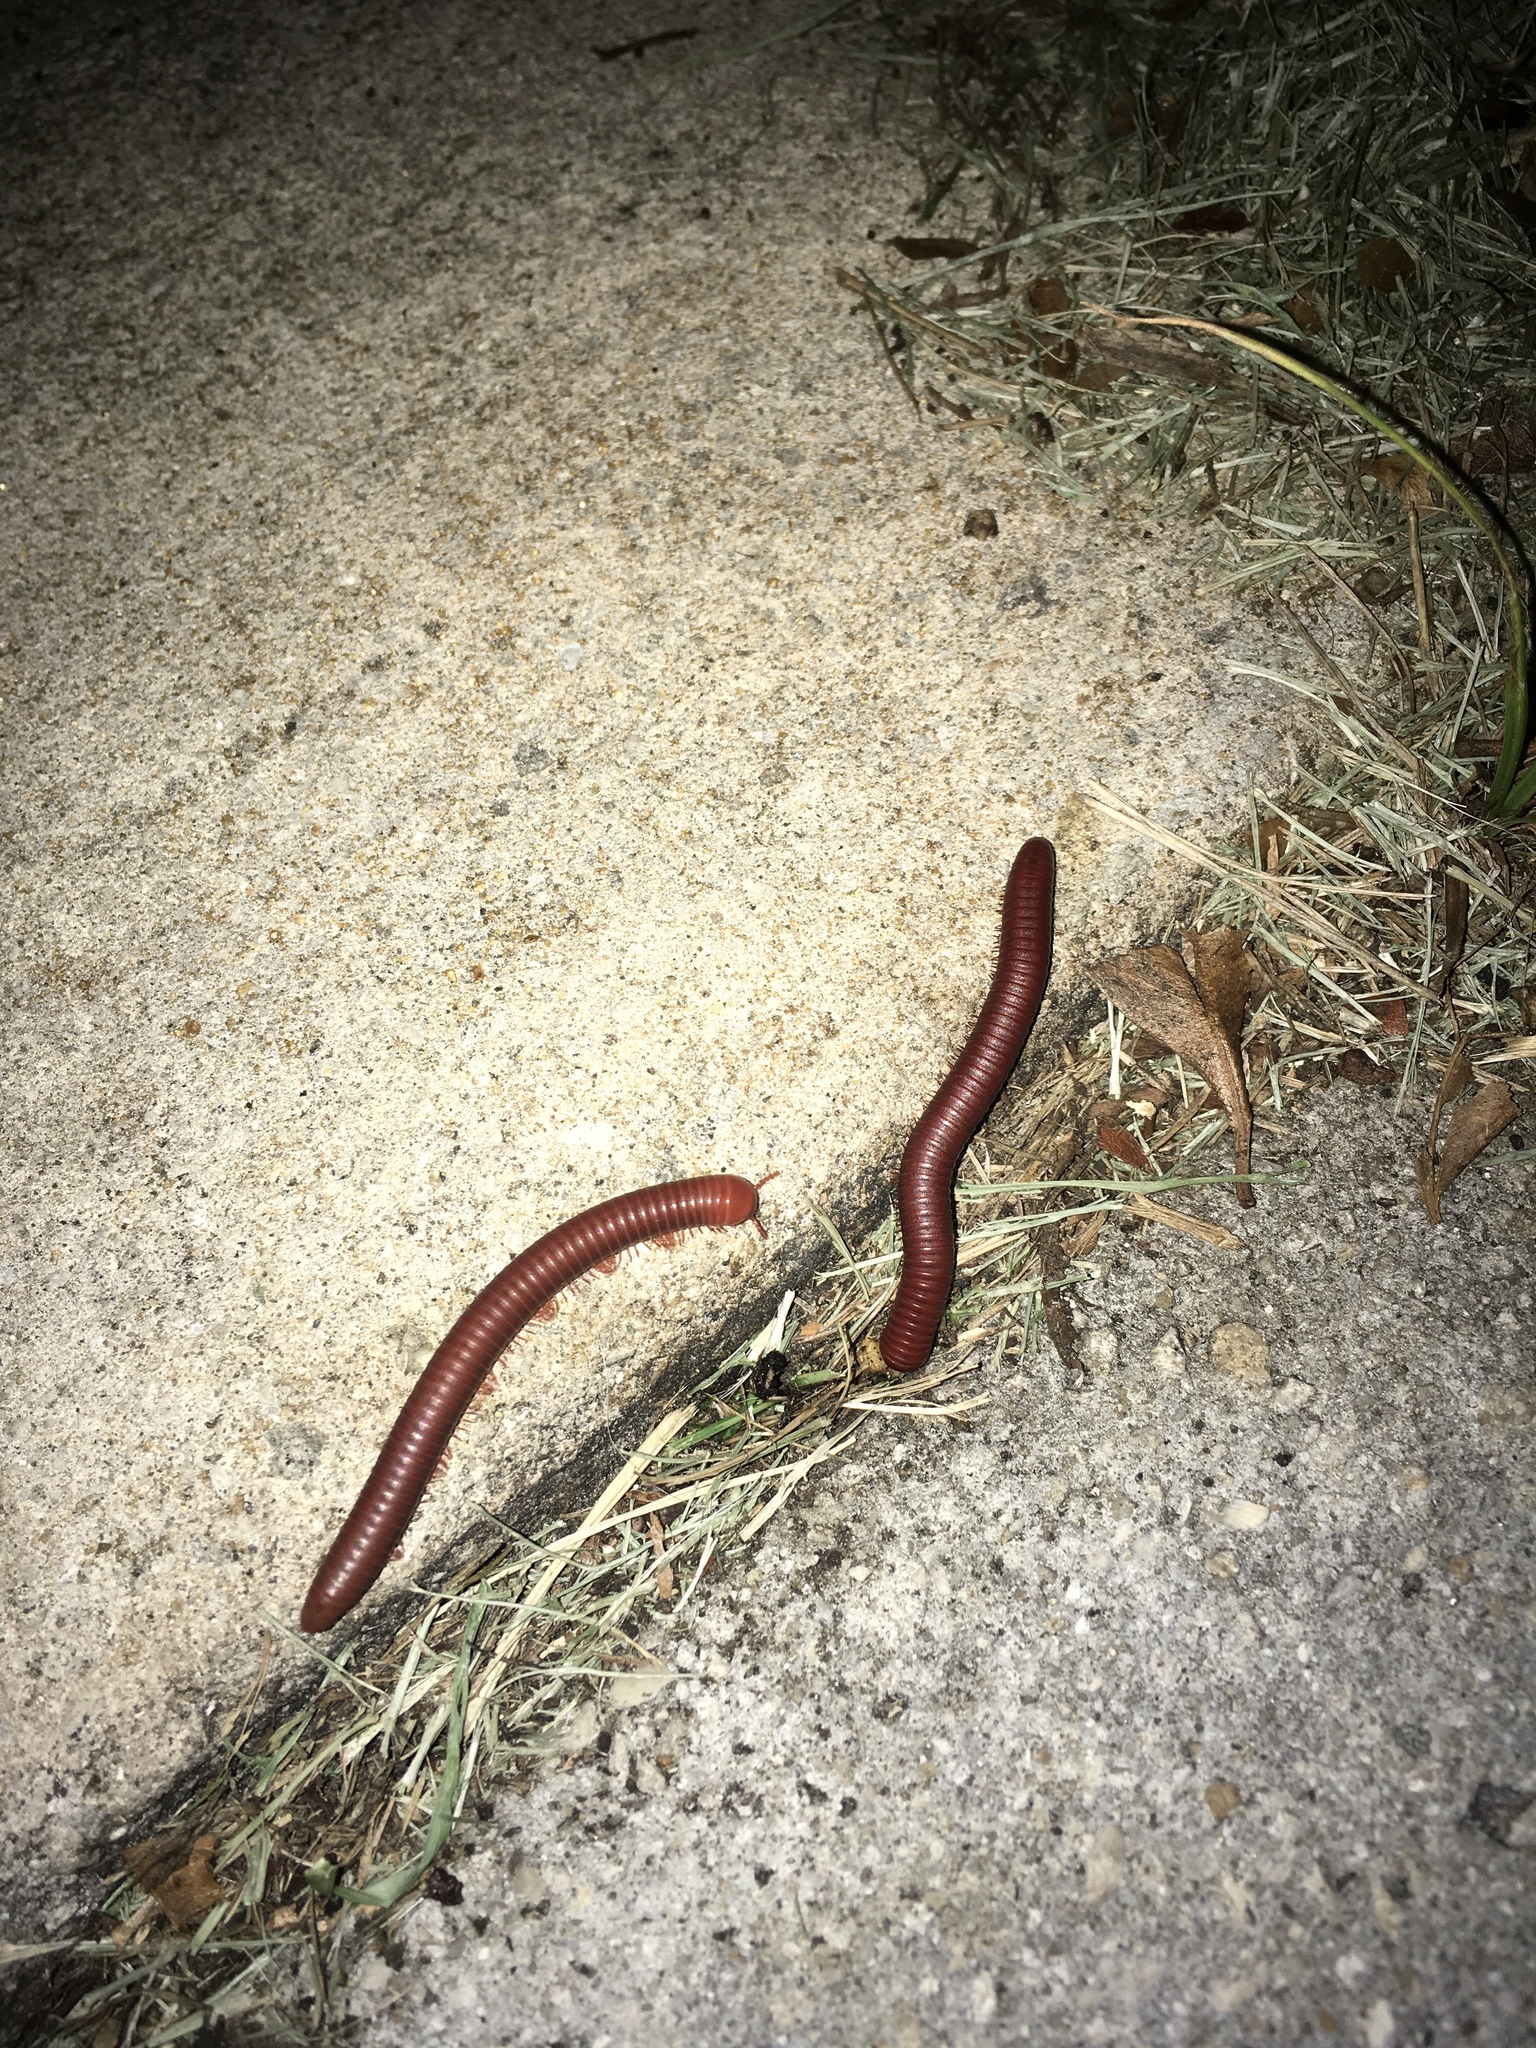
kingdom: Animalia
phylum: Arthropoda
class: Diplopoda
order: Spirobolida
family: Pachybolidae
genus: Trigoniulus
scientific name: Trigoniulus corallinus
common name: Millipede
